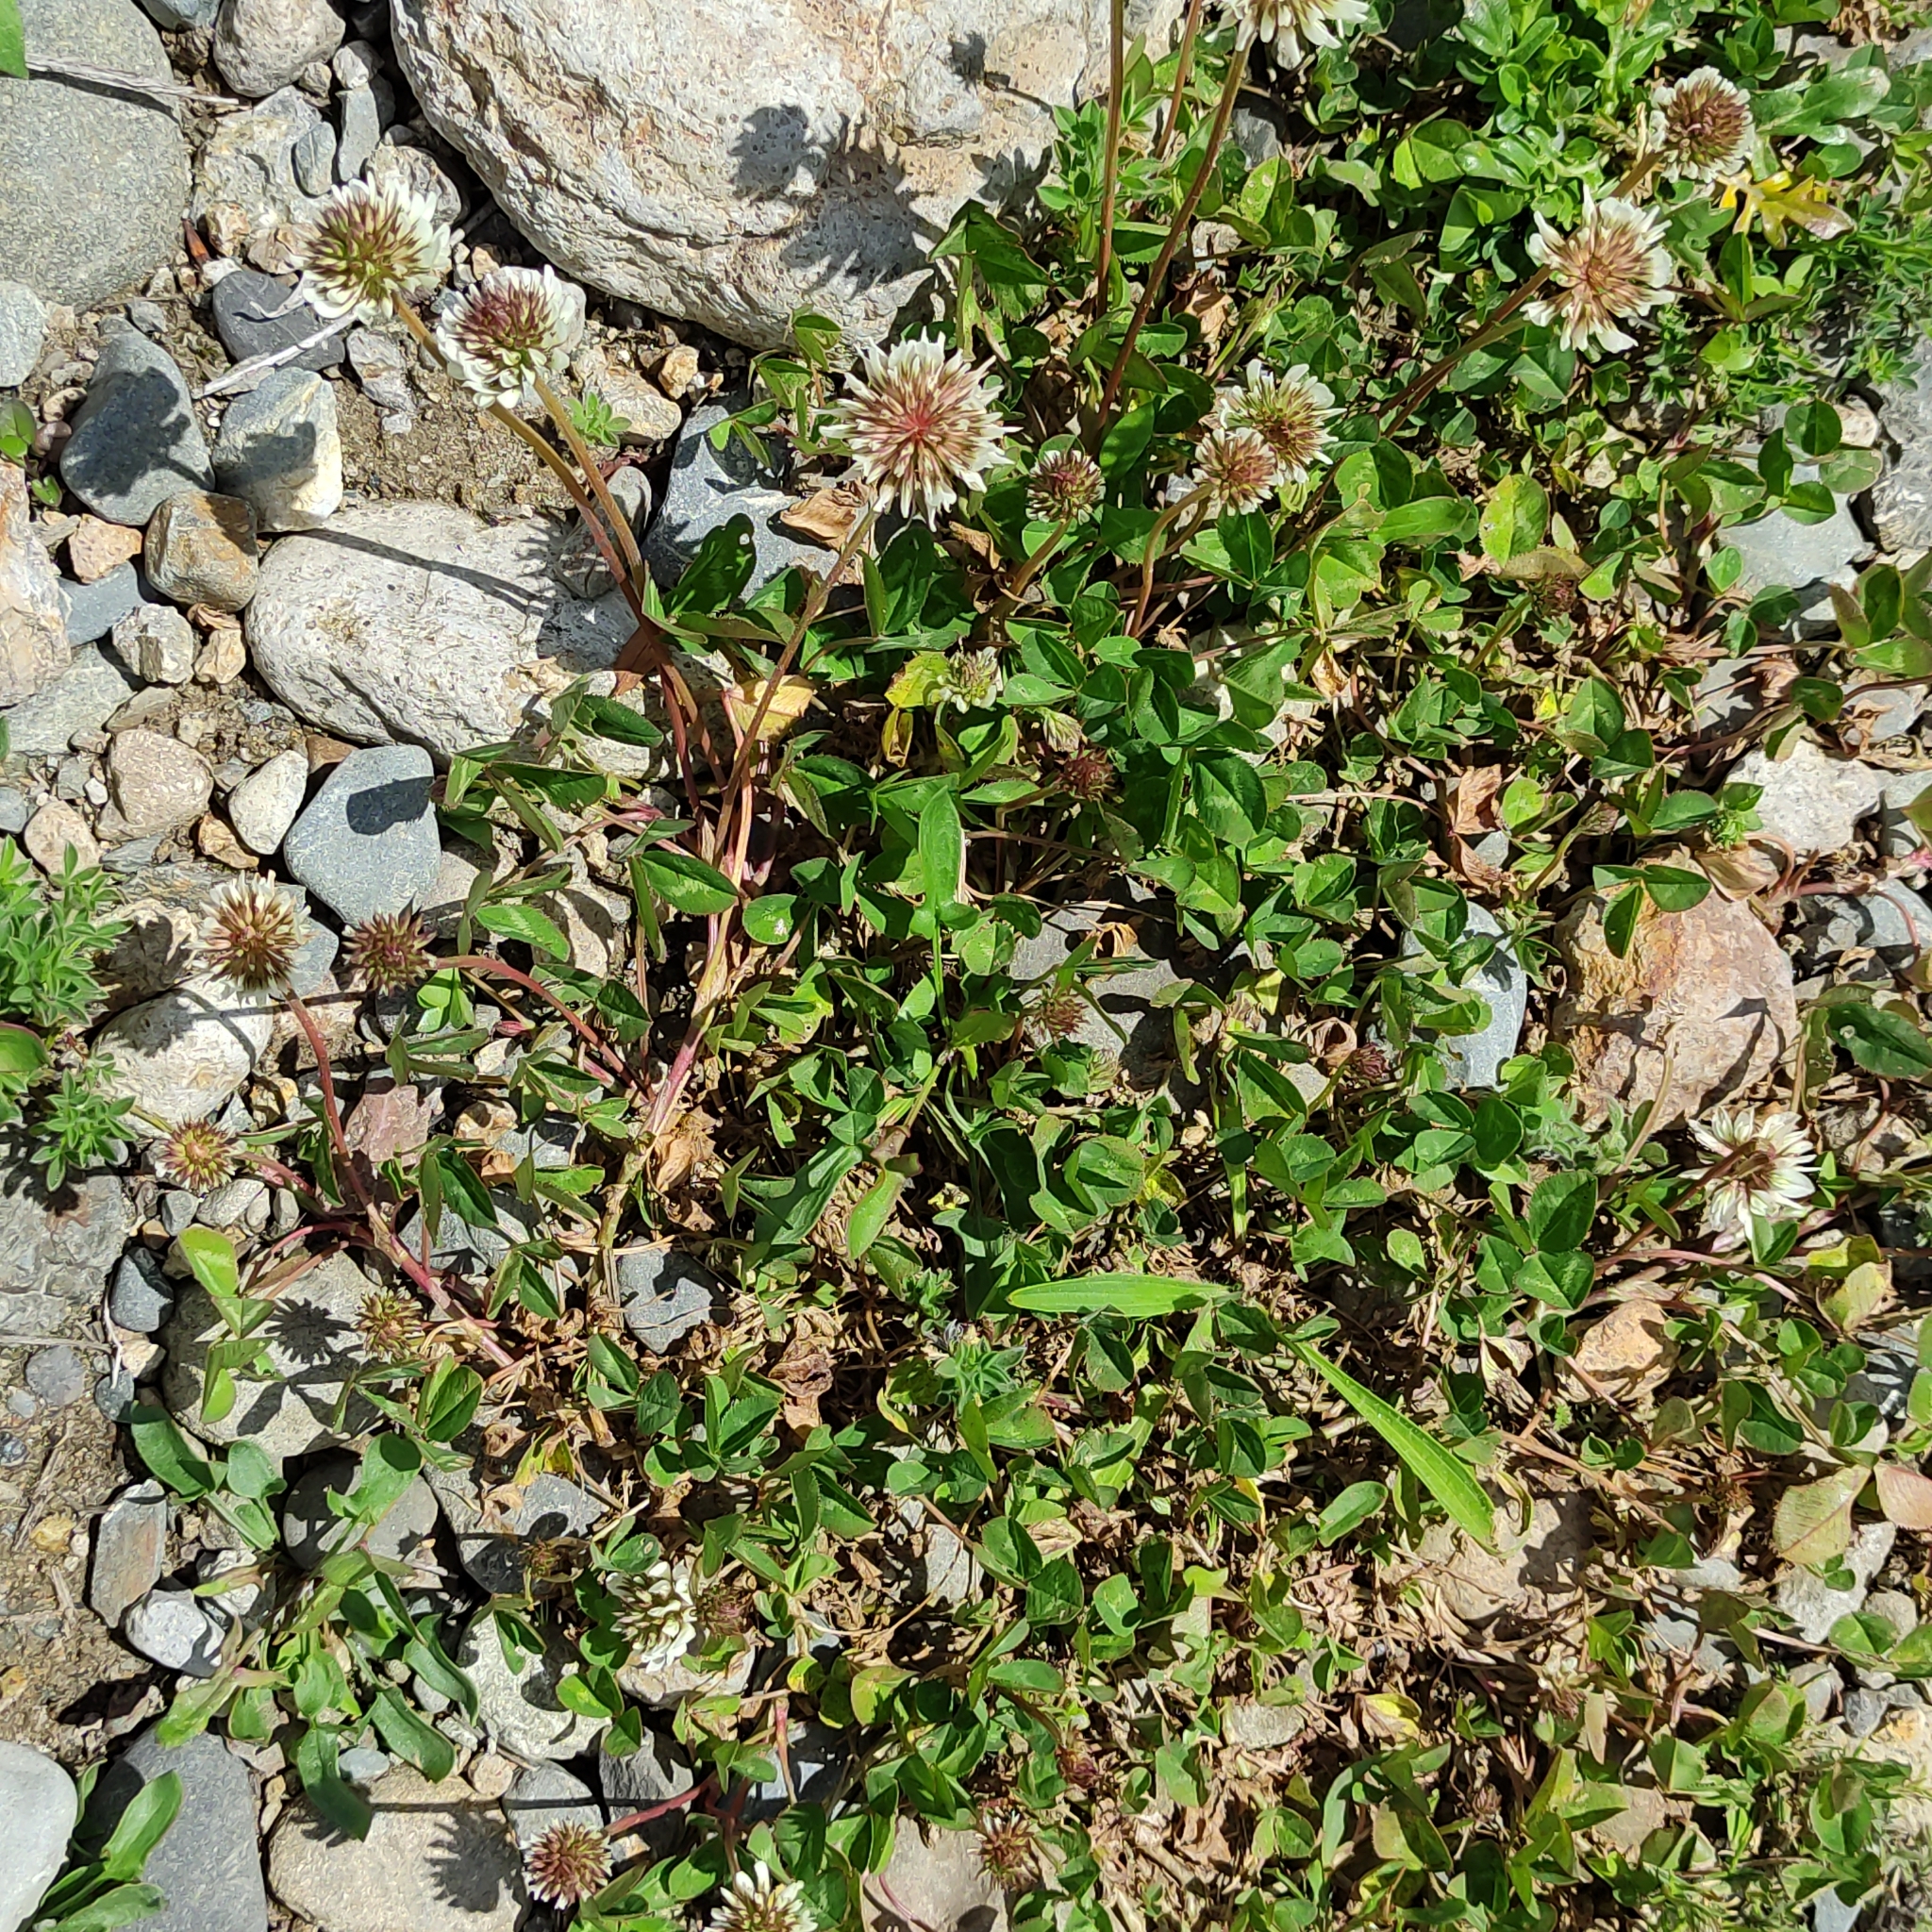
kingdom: Plantae
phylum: Tracheophyta
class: Magnoliopsida
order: Fabales
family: Fabaceae
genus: Trifolium
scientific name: Trifolium repens
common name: White clover
